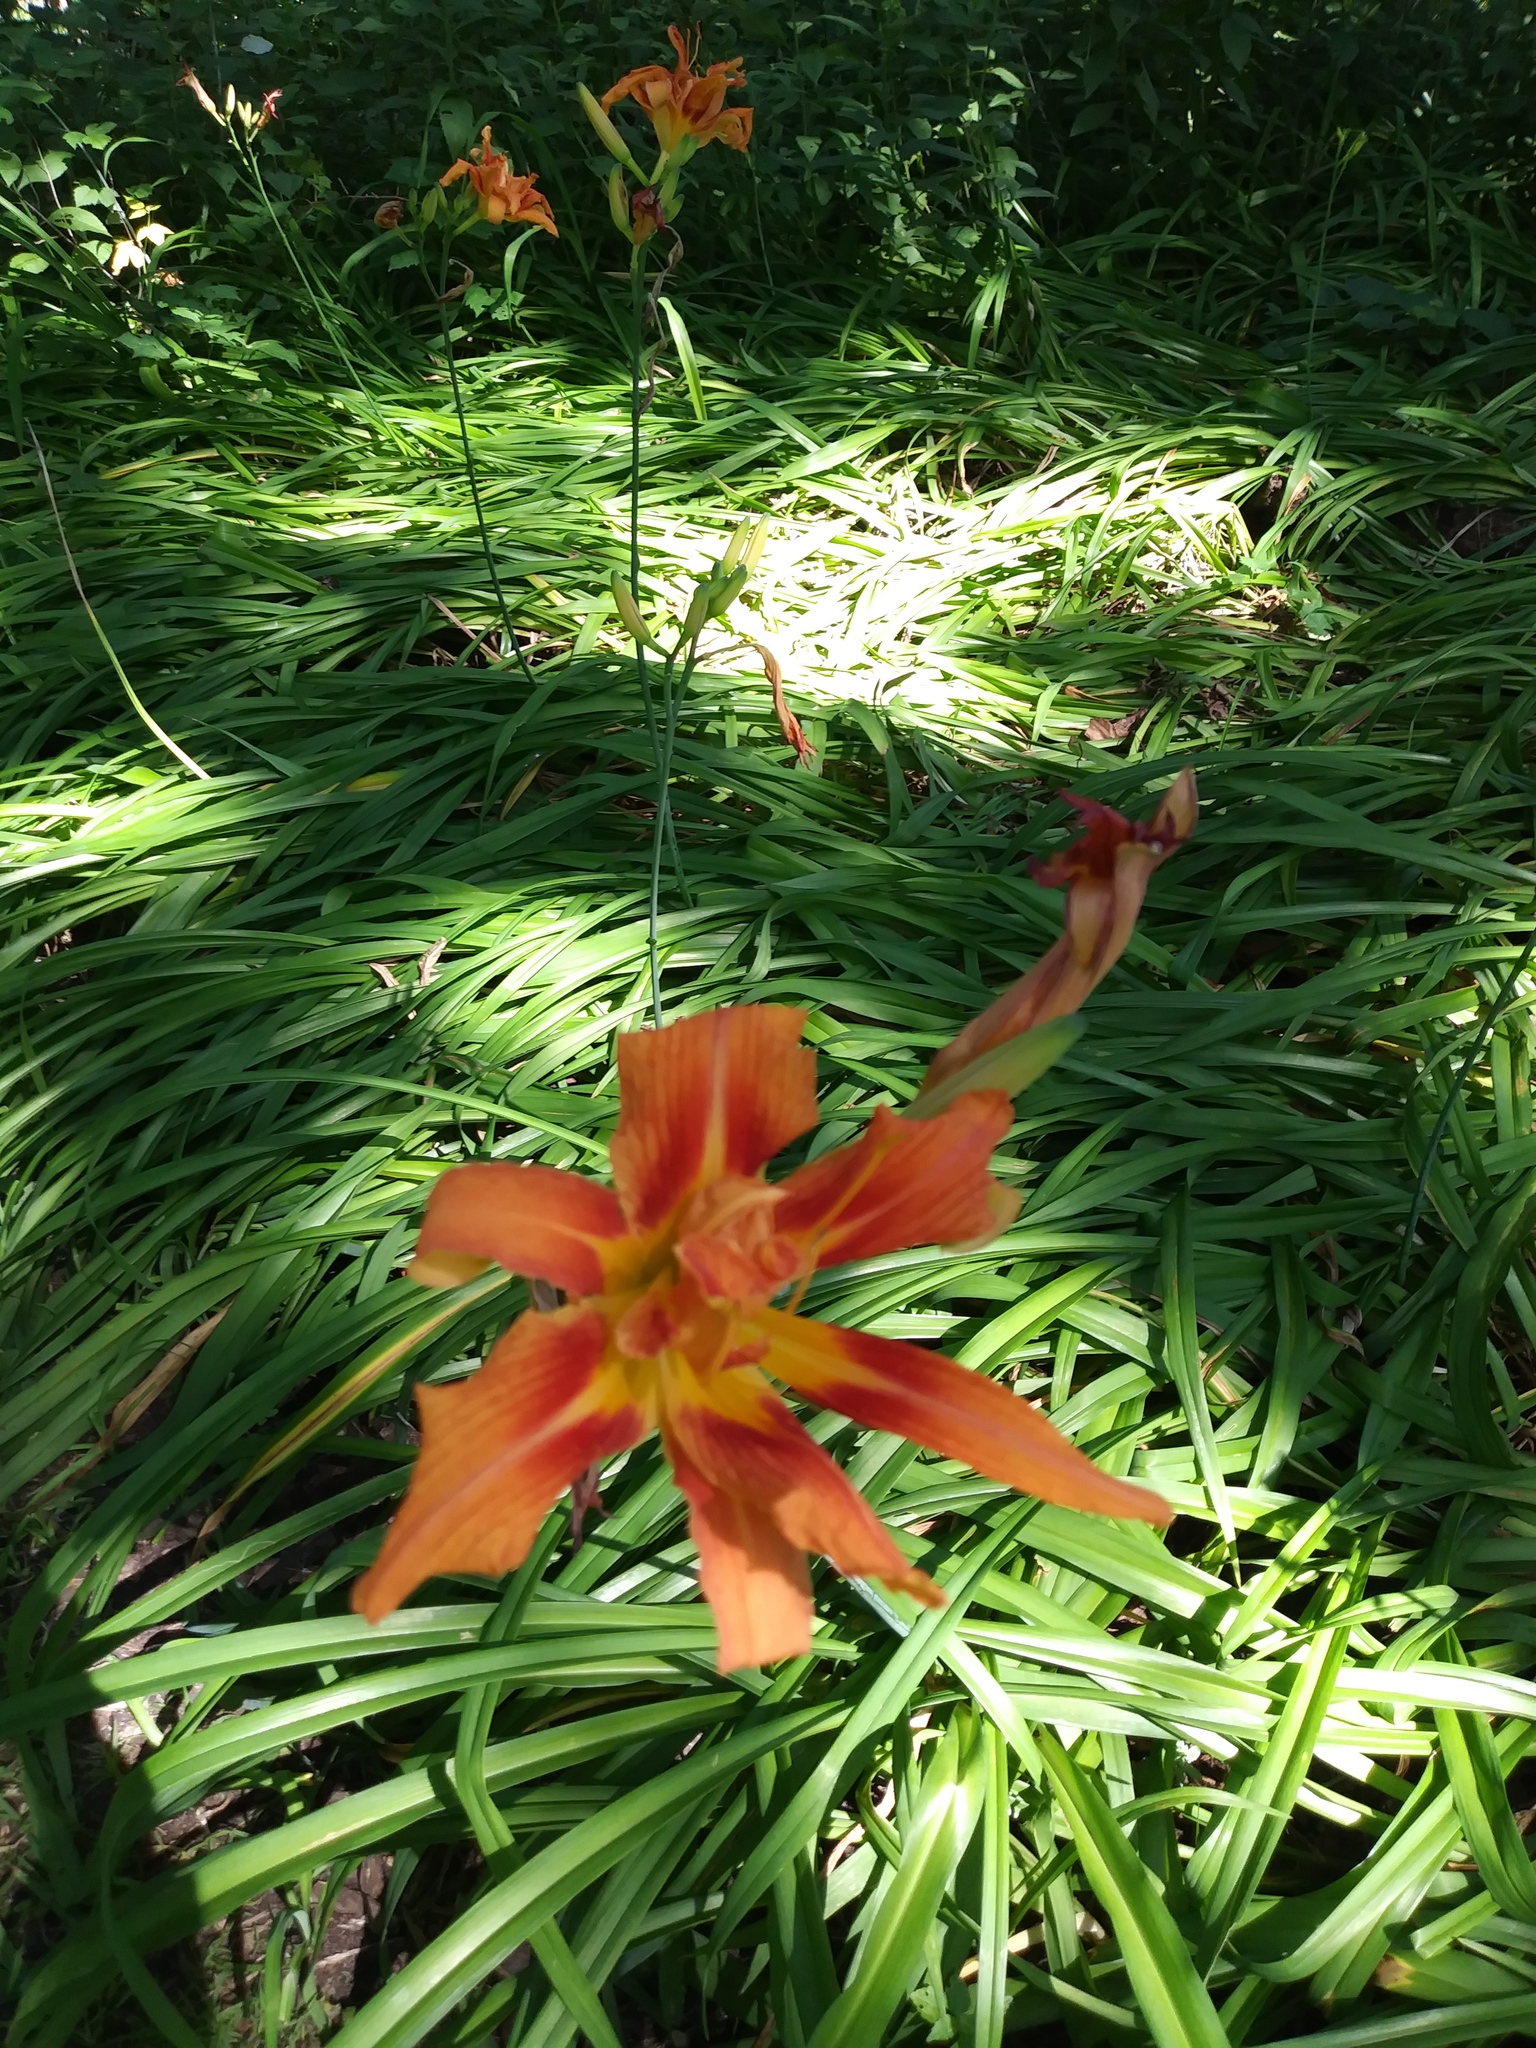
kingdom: Plantae
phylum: Tracheophyta
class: Liliopsida
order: Asparagales
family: Asphodelaceae
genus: Hemerocallis
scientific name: Hemerocallis fulva
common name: Orange day-lily
